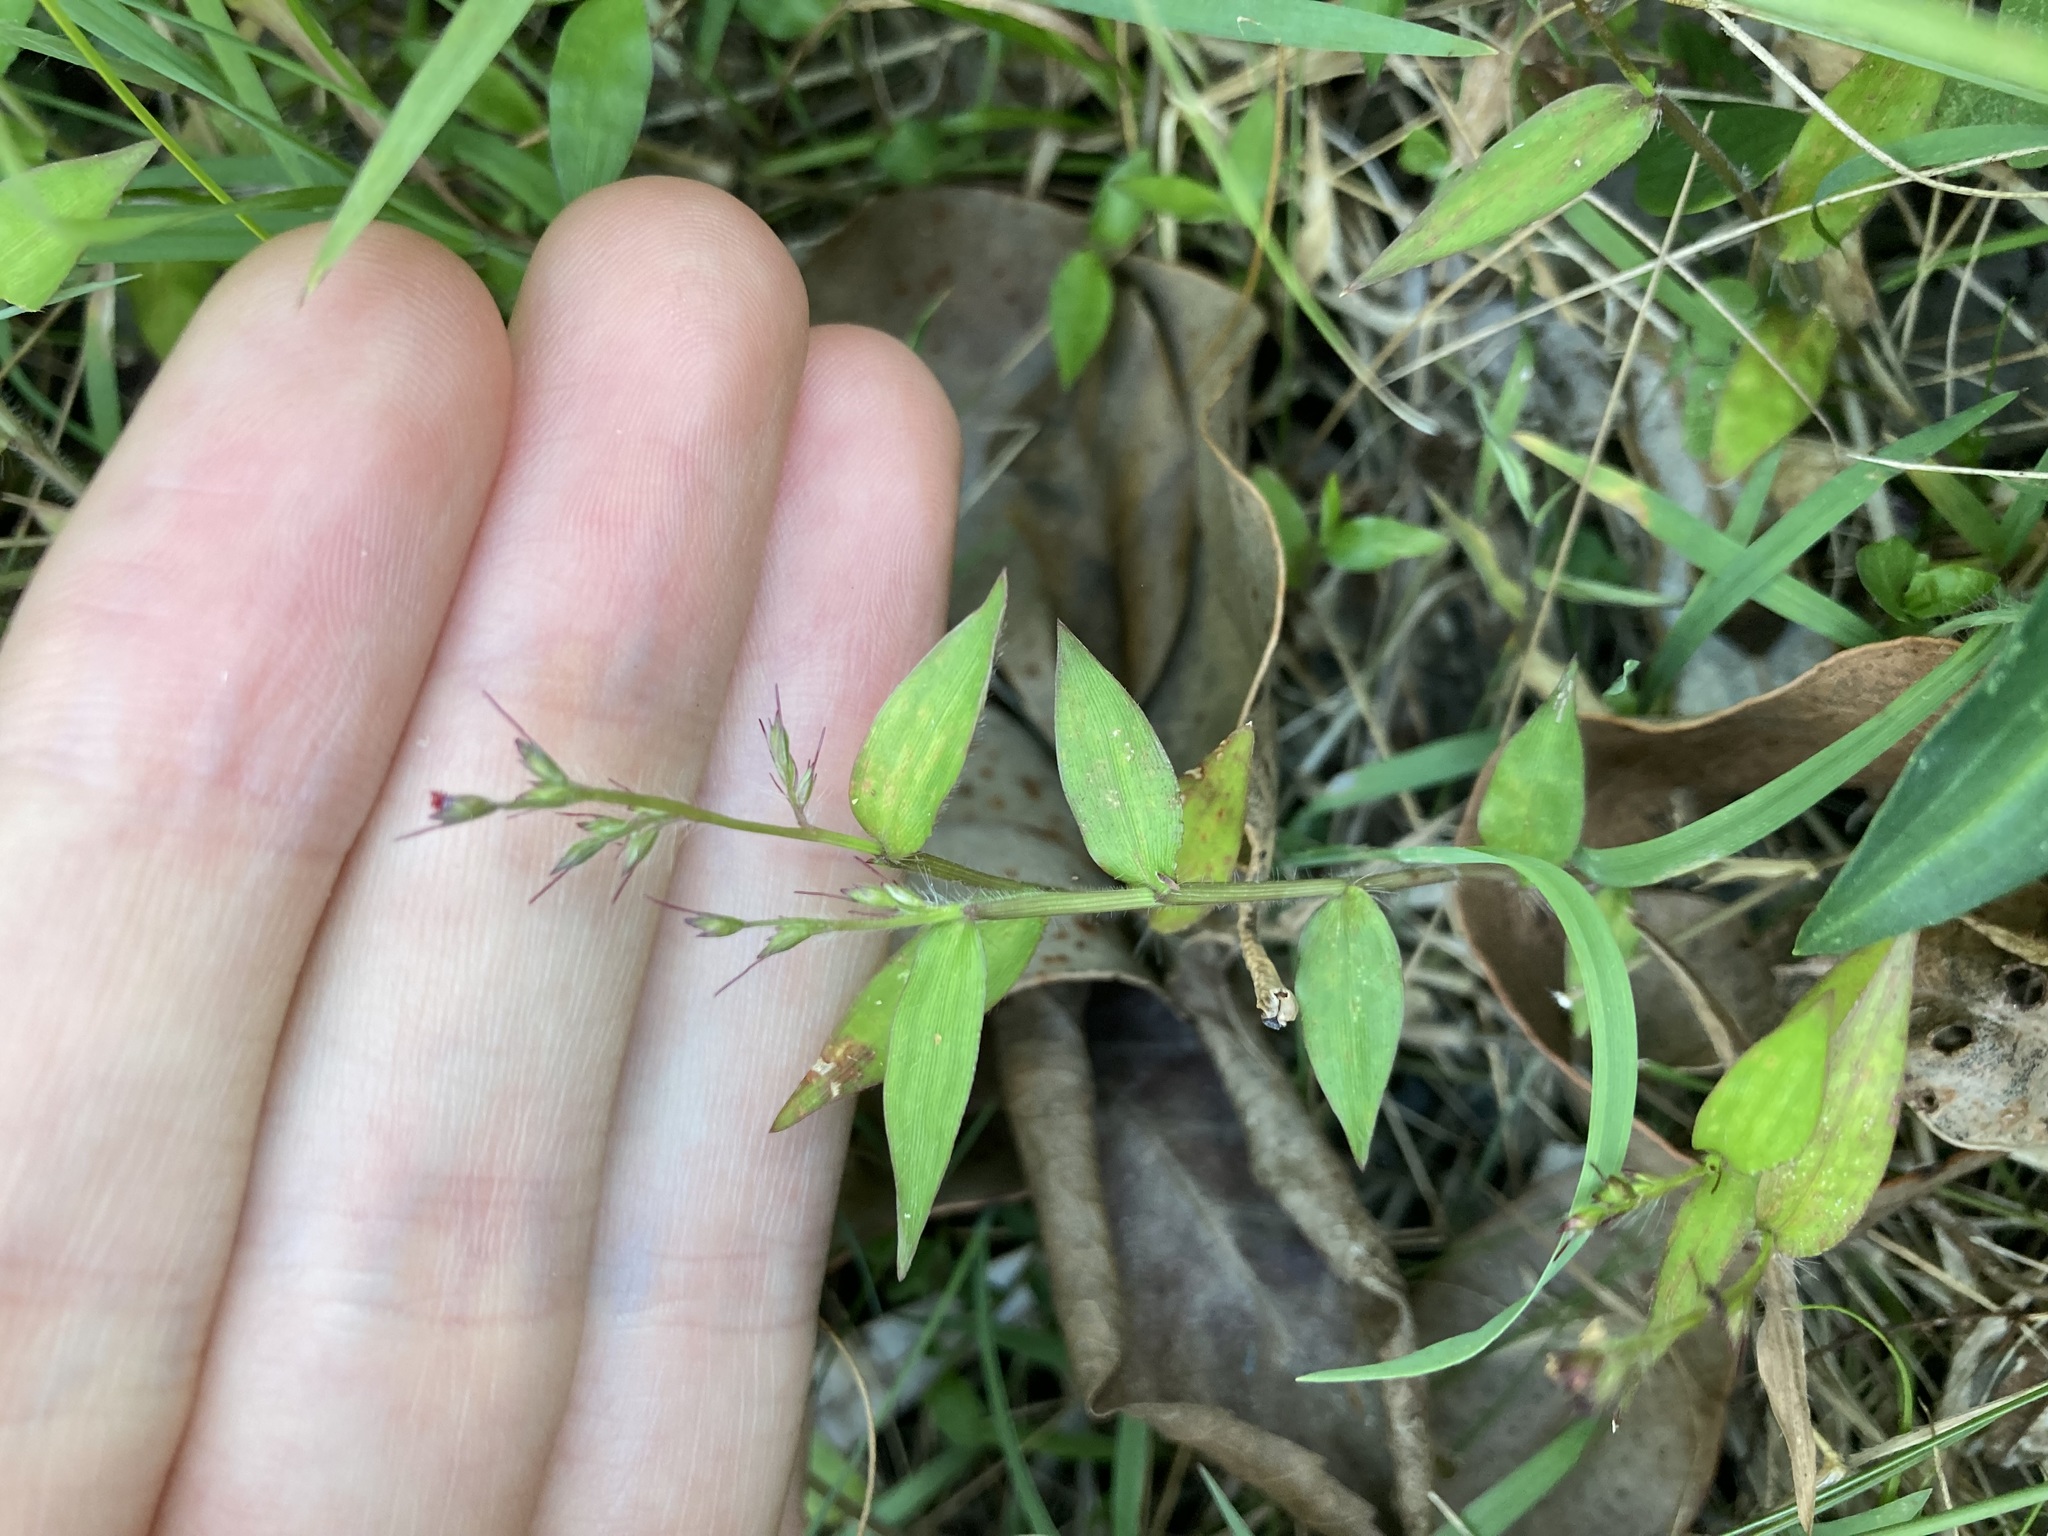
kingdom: Plantae
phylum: Tracheophyta
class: Liliopsida
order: Poales
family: Poaceae
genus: Oplismenus
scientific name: Oplismenus hirtellus
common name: Basketgrass
